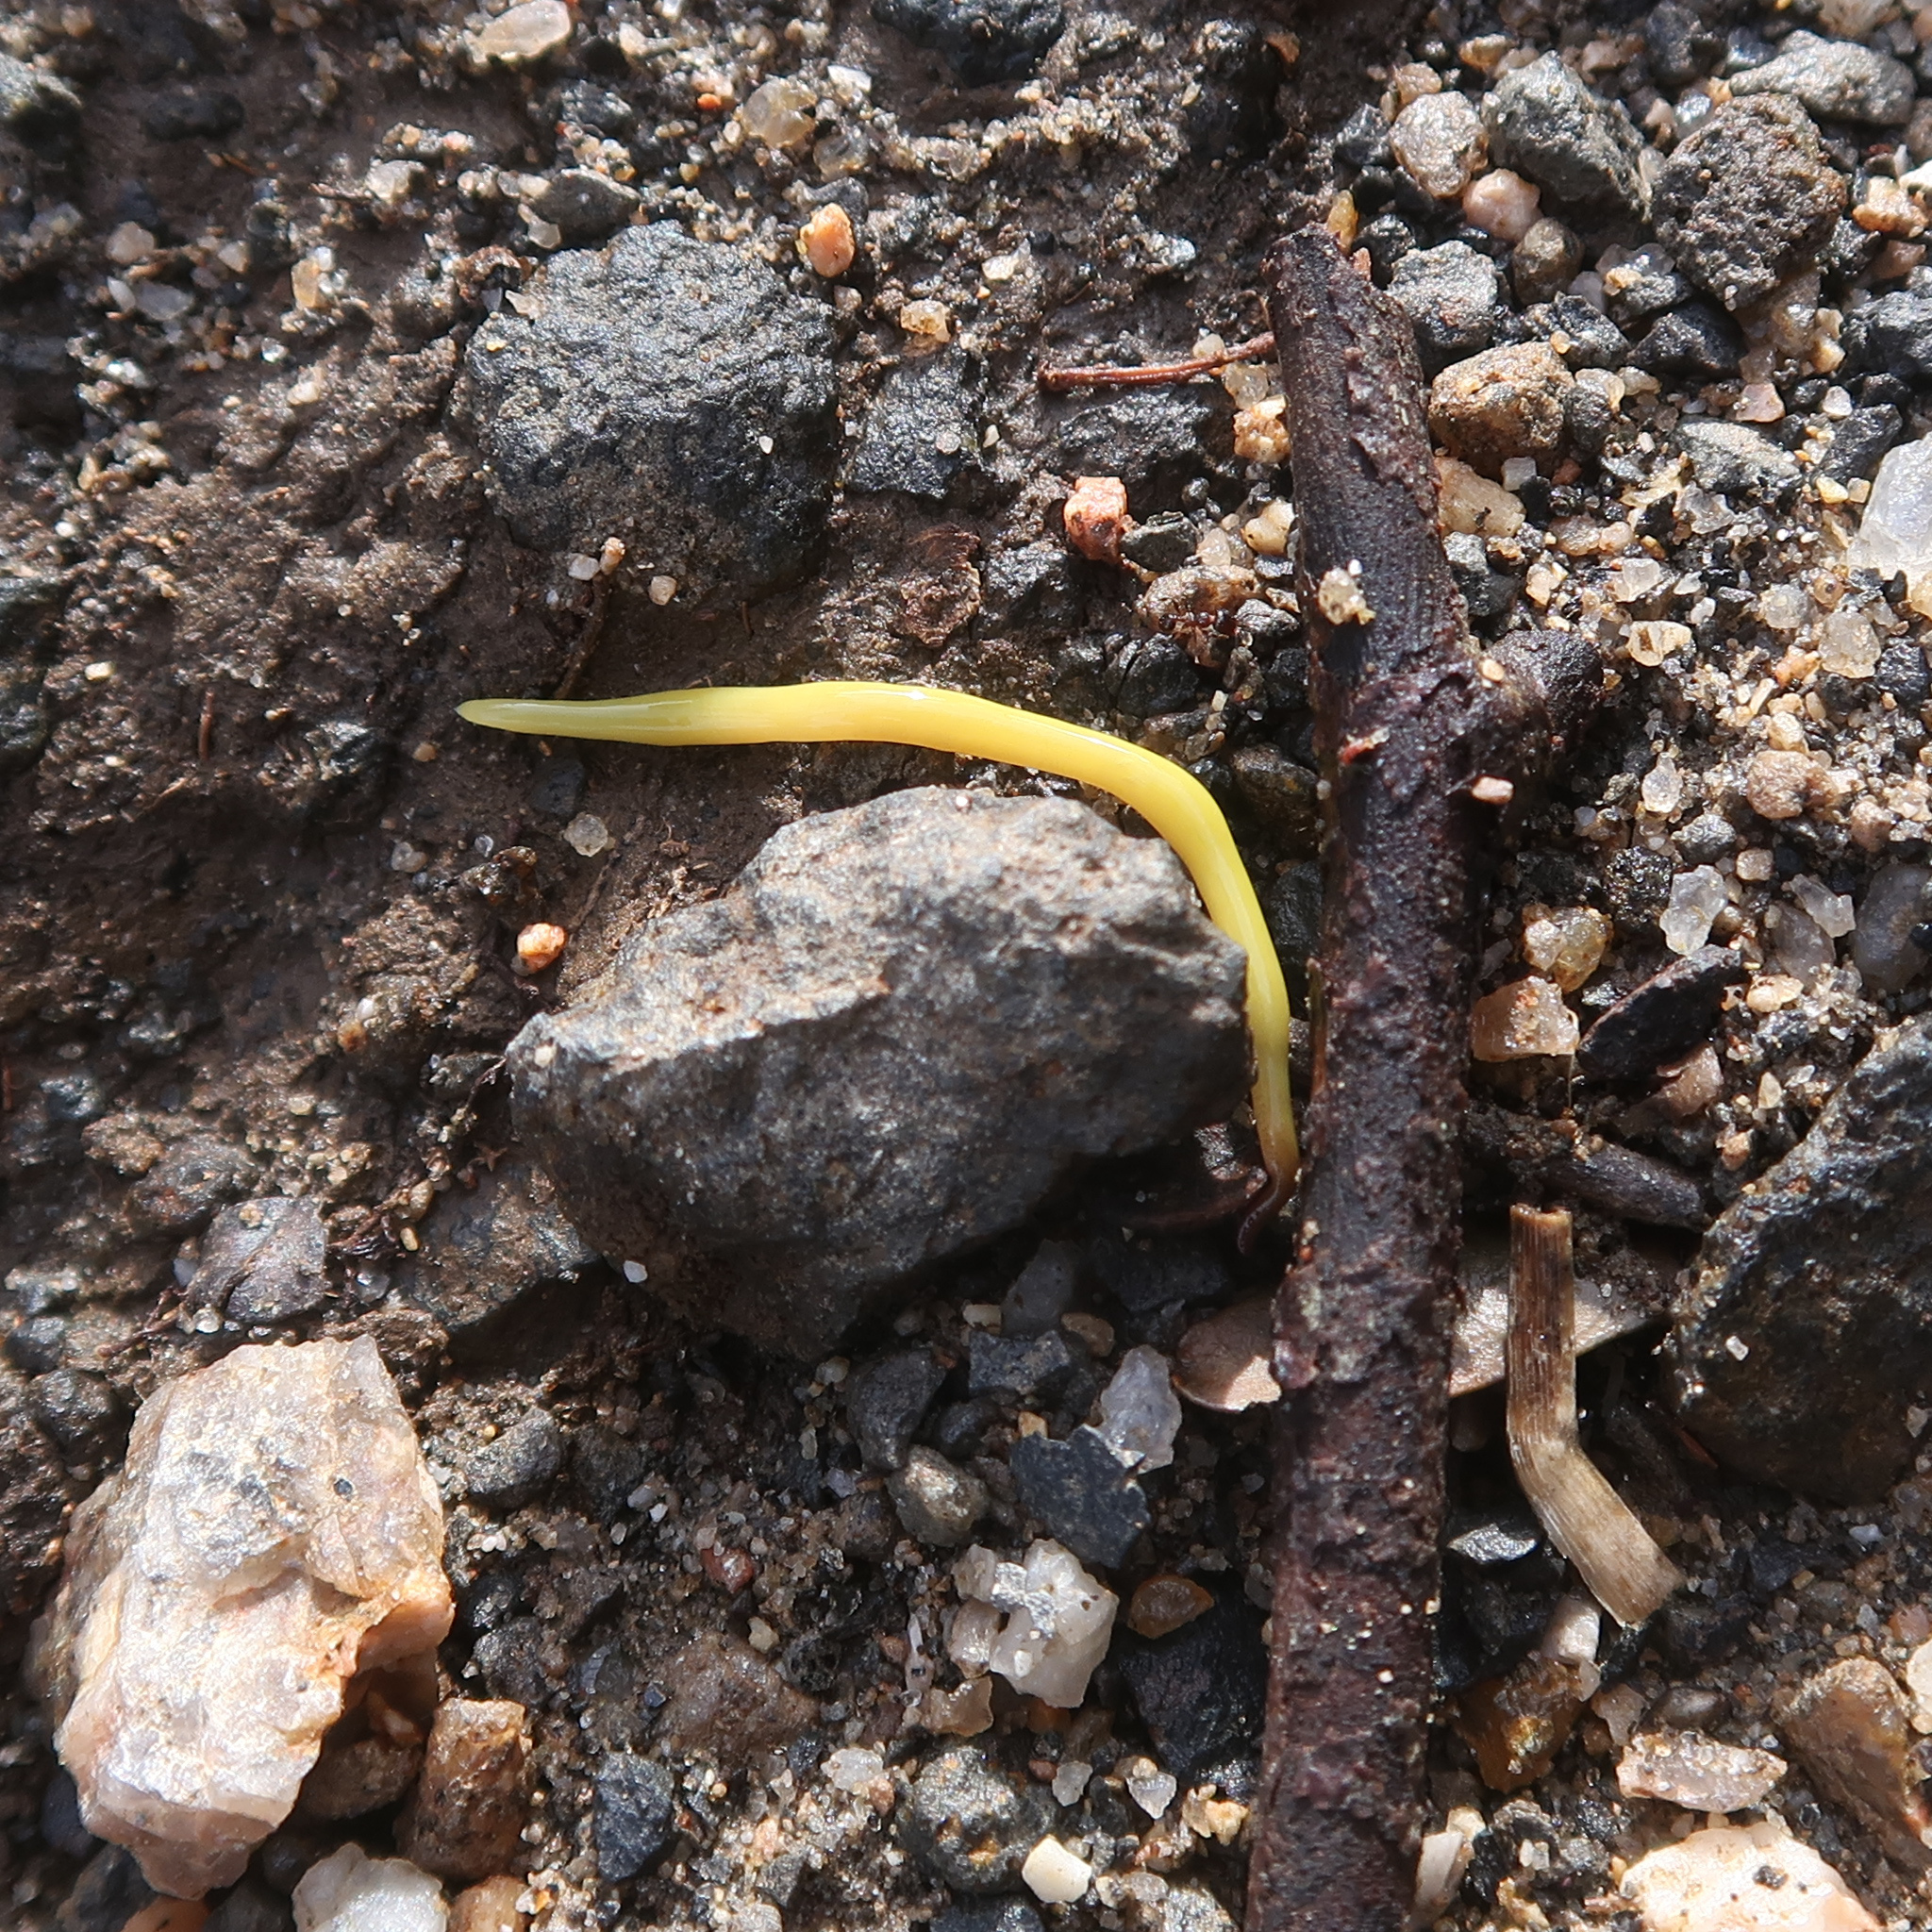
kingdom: Animalia
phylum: Platyhelminthes
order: Tricladida
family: Geoplanidae
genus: Fletchamia
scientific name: Fletchamia sugdeni
